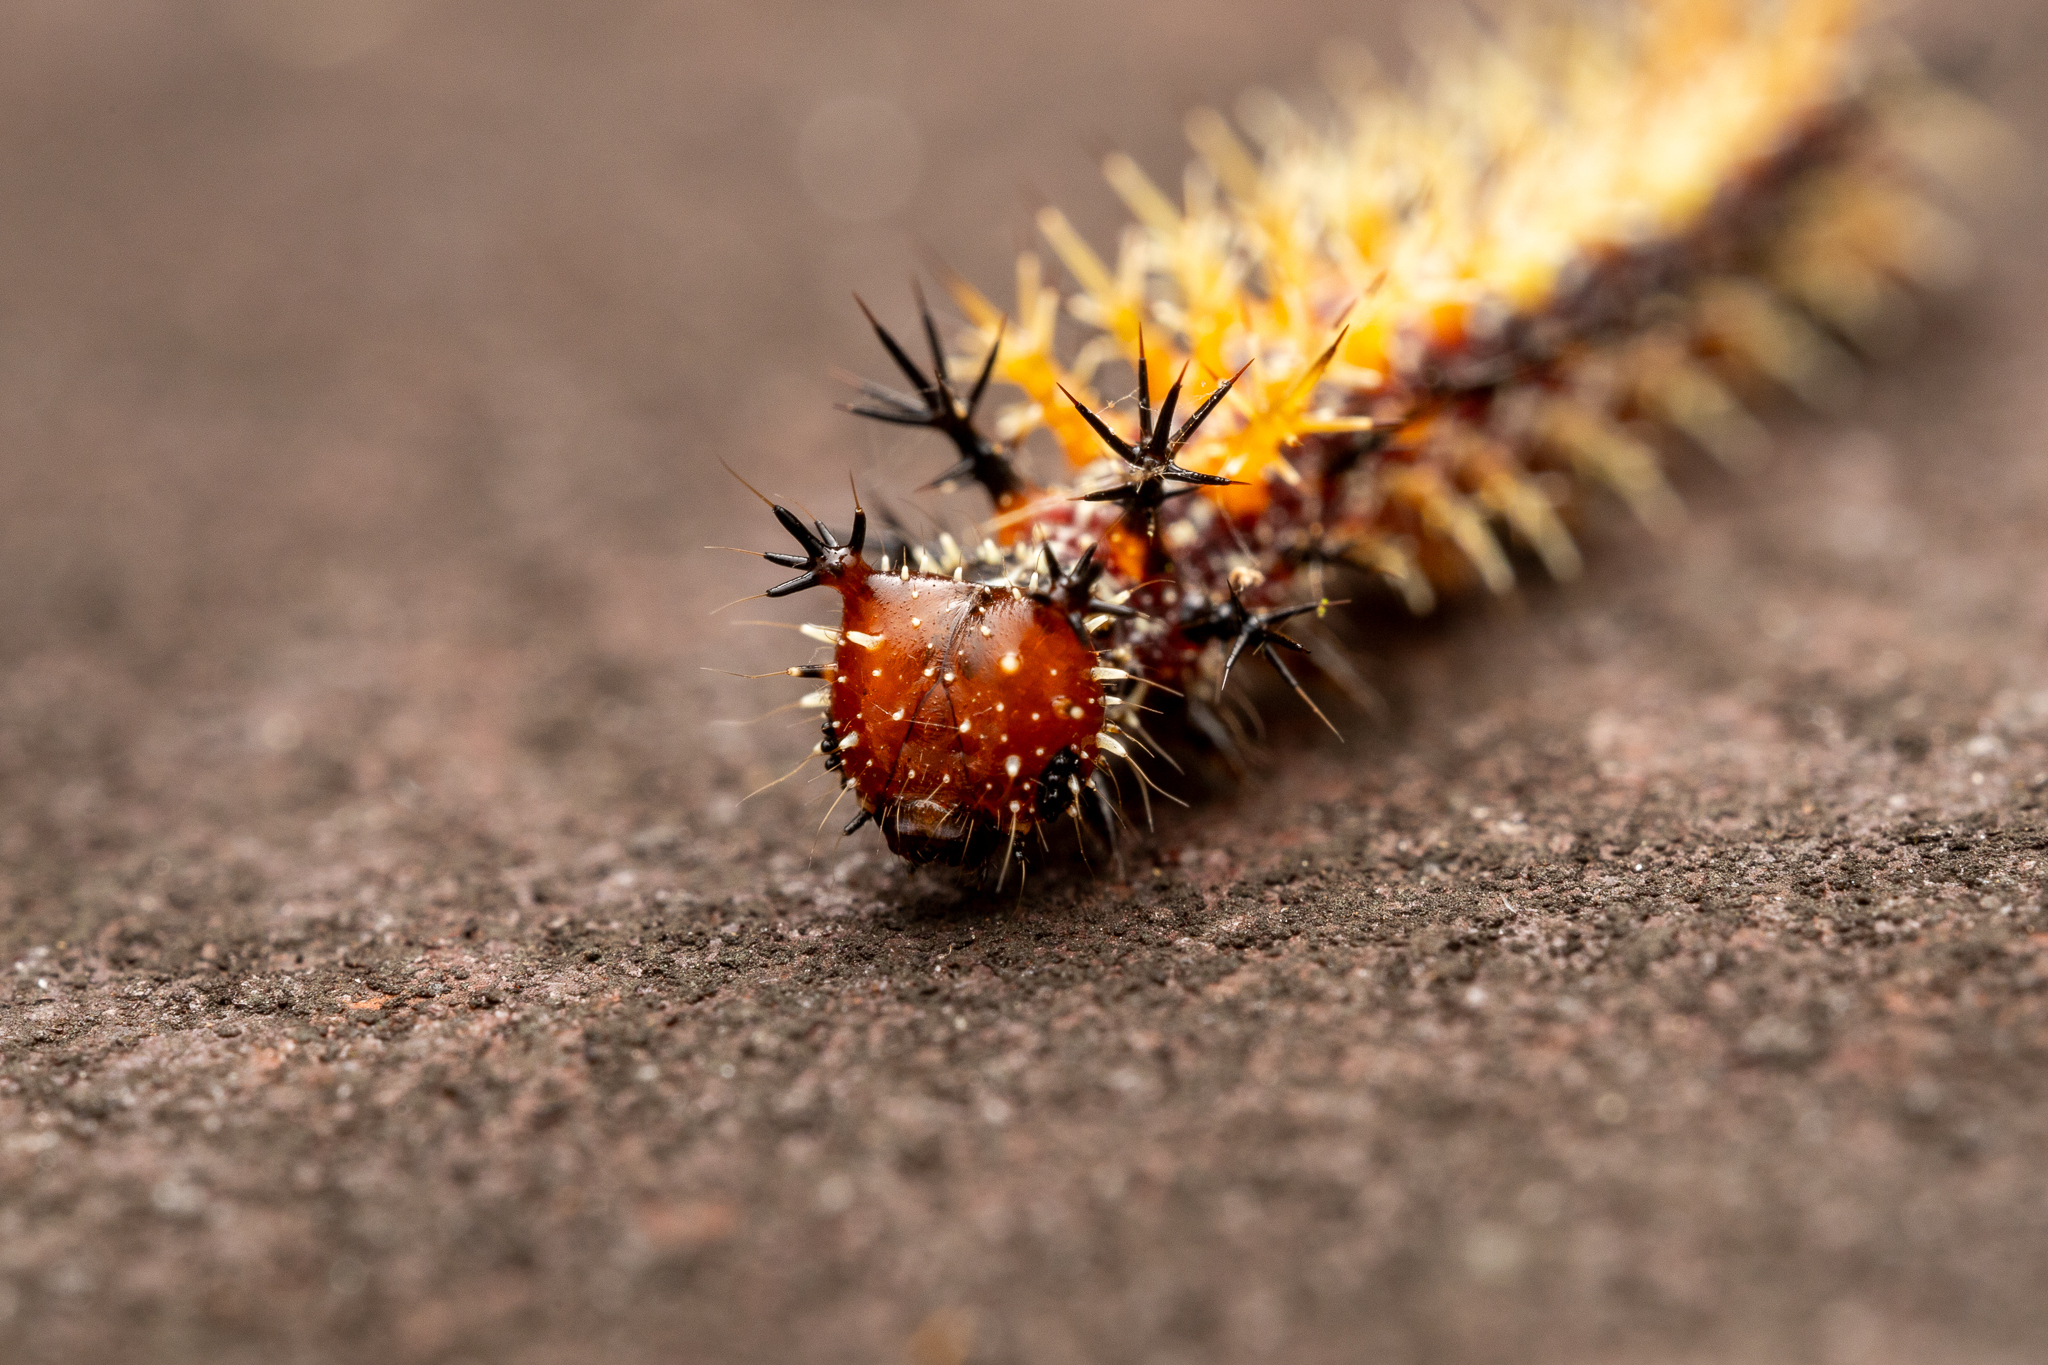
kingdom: Animalia
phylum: Arthropoda
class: Insecta
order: Lepidoptera
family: Nymphalidae
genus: Polygonia
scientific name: Polygonia interrogationis
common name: Question mark
